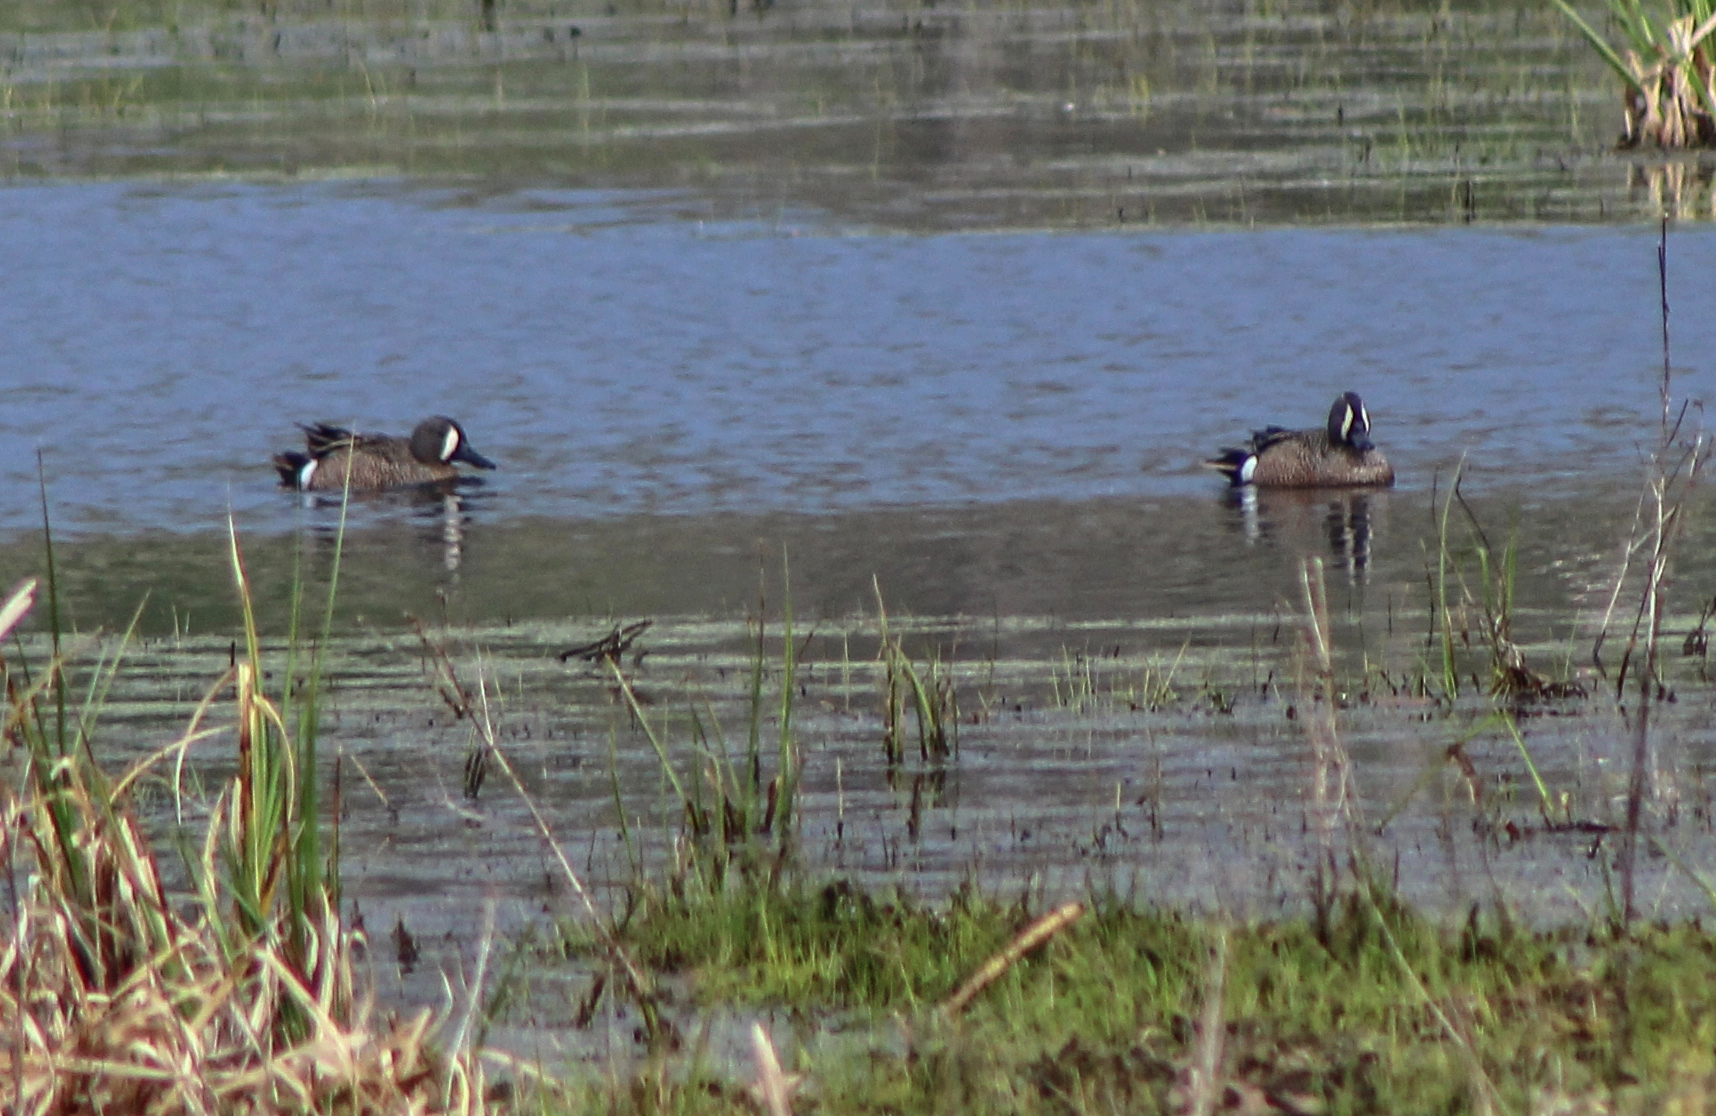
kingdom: Animalia
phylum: Chordata
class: Aves
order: Anseriformes
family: Anatidae
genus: Spatula
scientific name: Spatula discors
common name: Blue-winged teal
